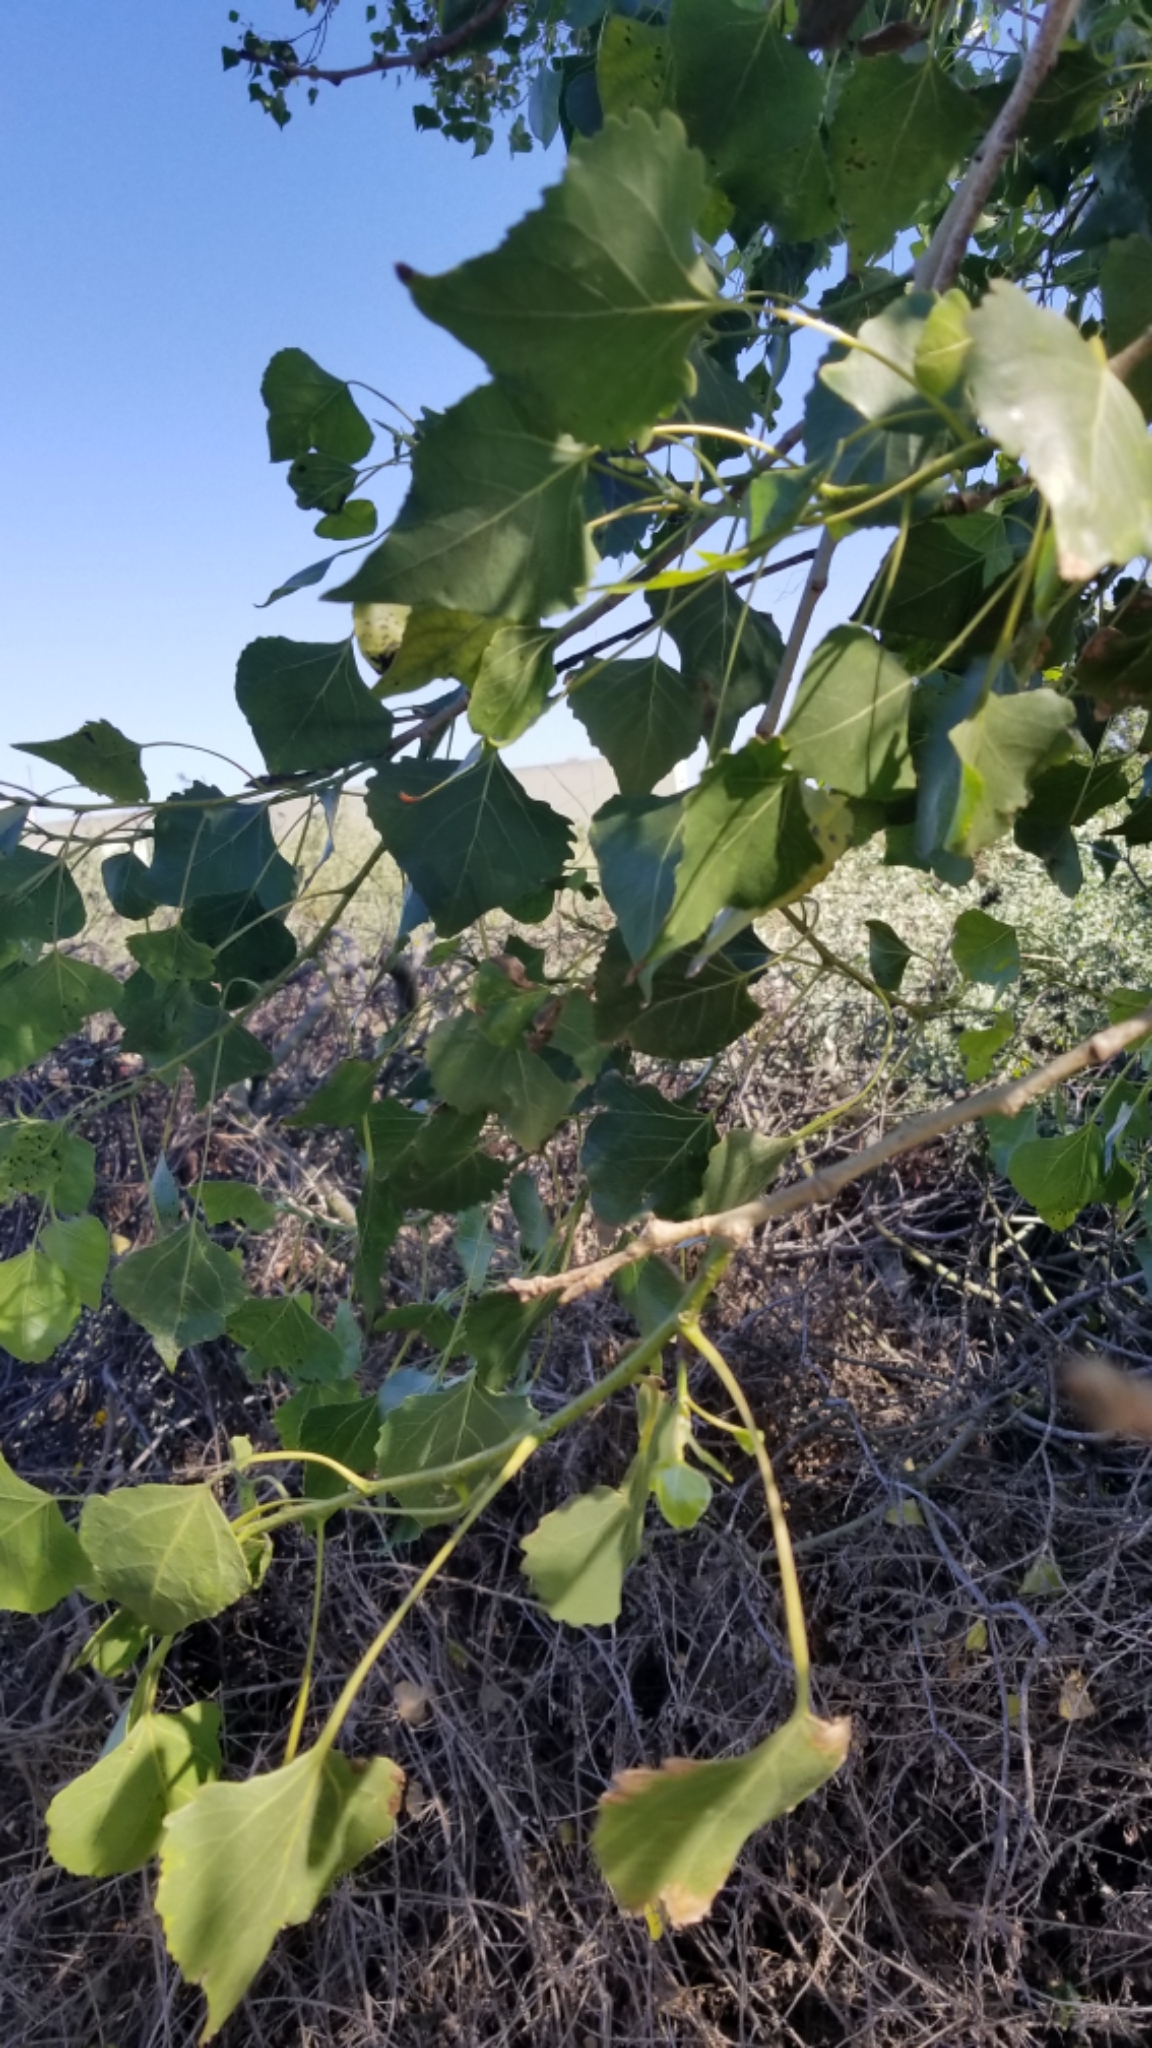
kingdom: Plantae
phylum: Tracheophyta
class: Magnoliopsida
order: Malpighiales
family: Salicaceae
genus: Populus
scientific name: Populus fremontii
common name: Fremont's cottonwood
